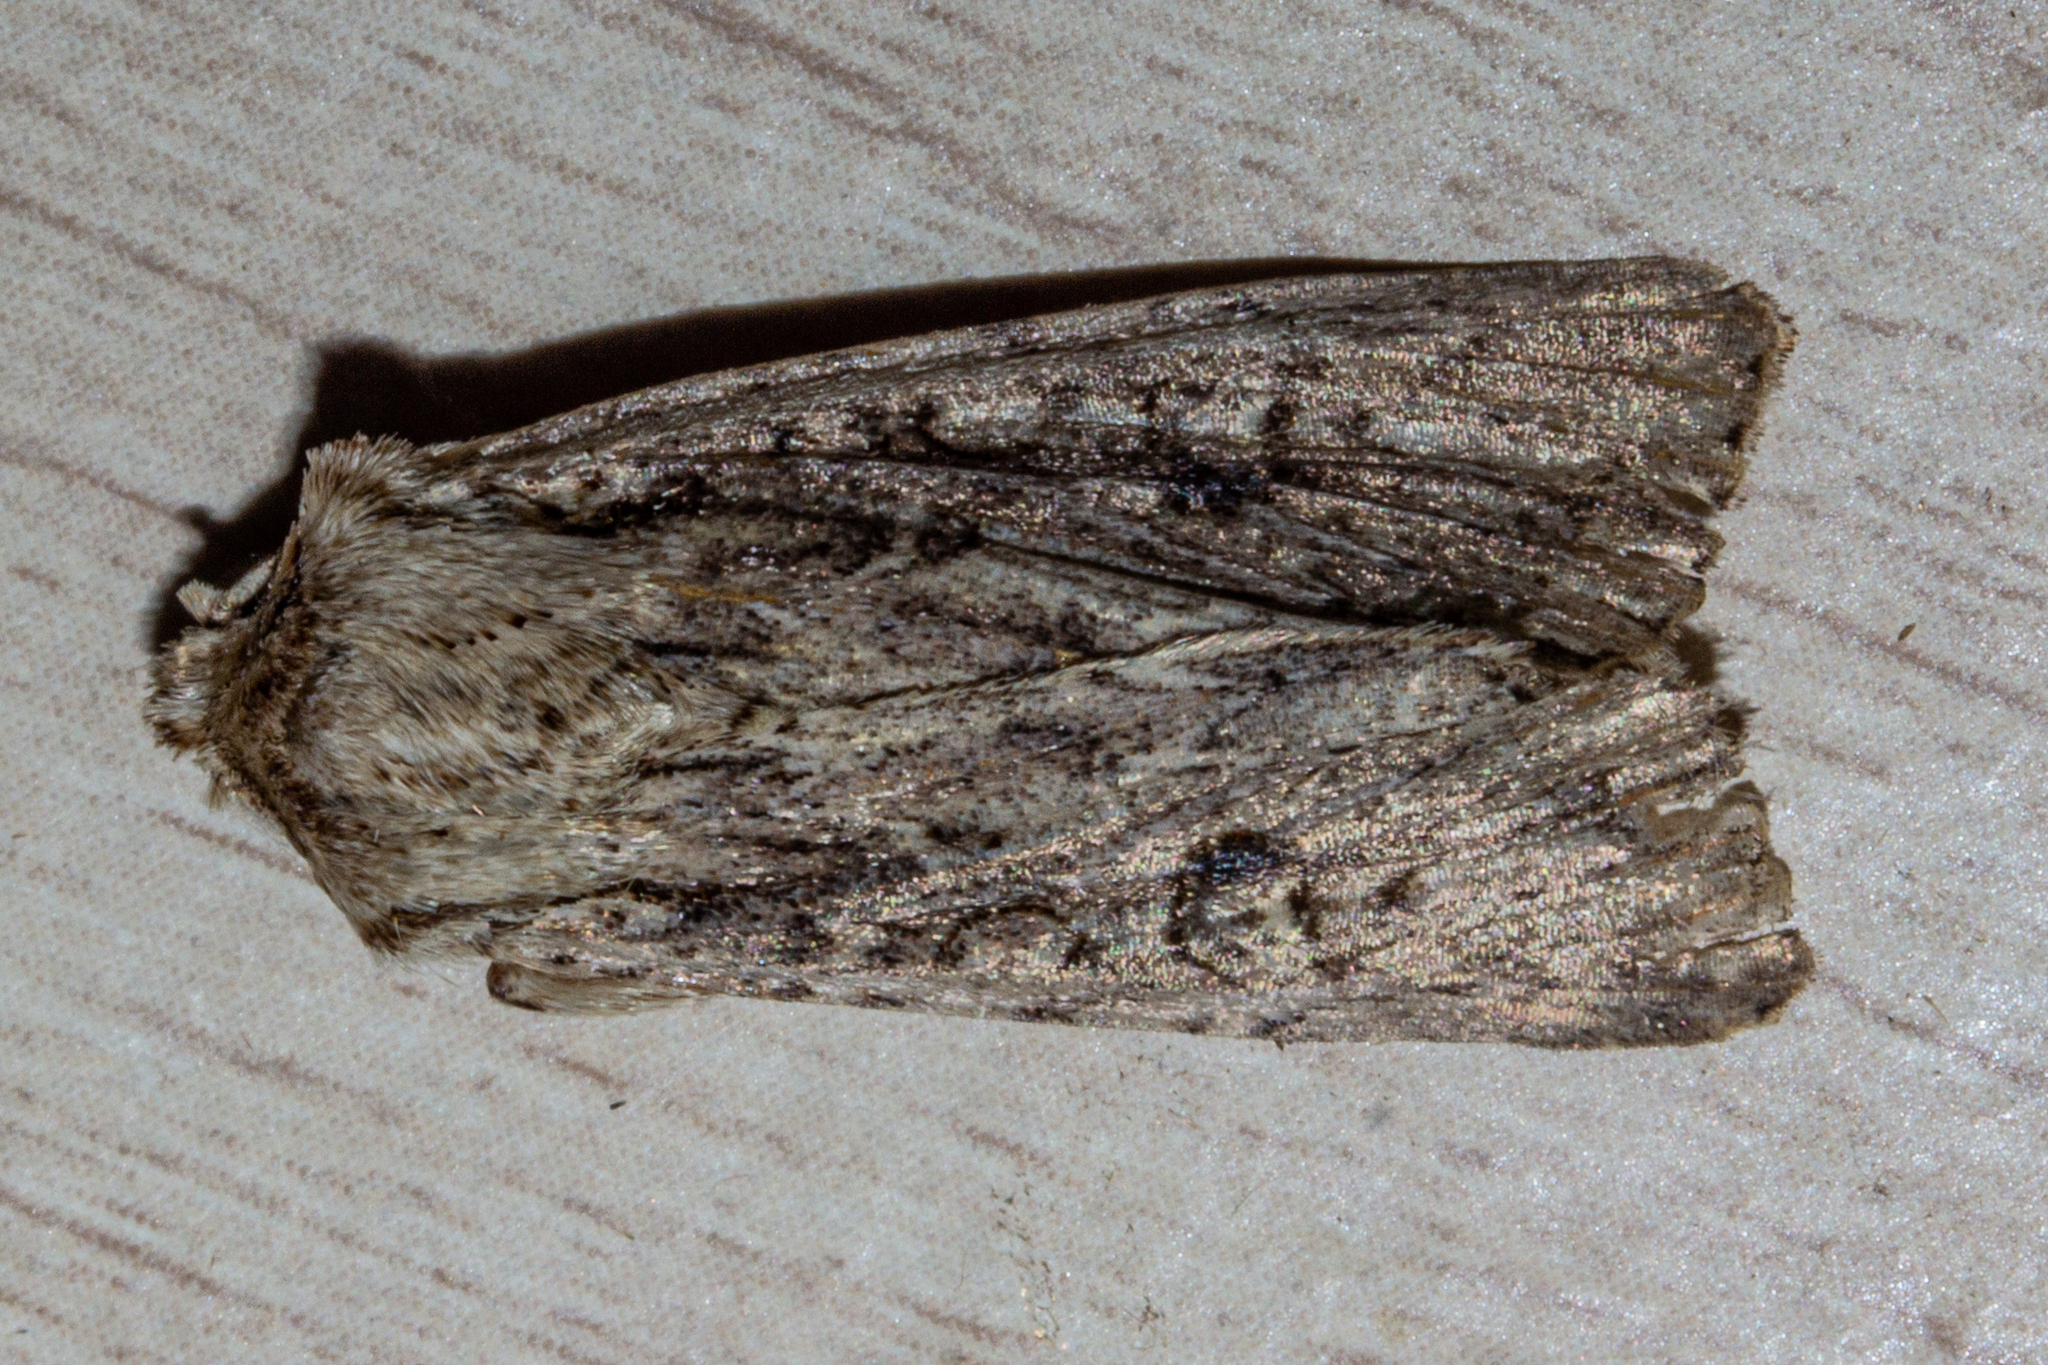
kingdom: Animalia
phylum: Arthropoda
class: Insecta
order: Lepidoptera
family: Noctuidae
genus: Ichneutica
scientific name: Ichneutica lignana
